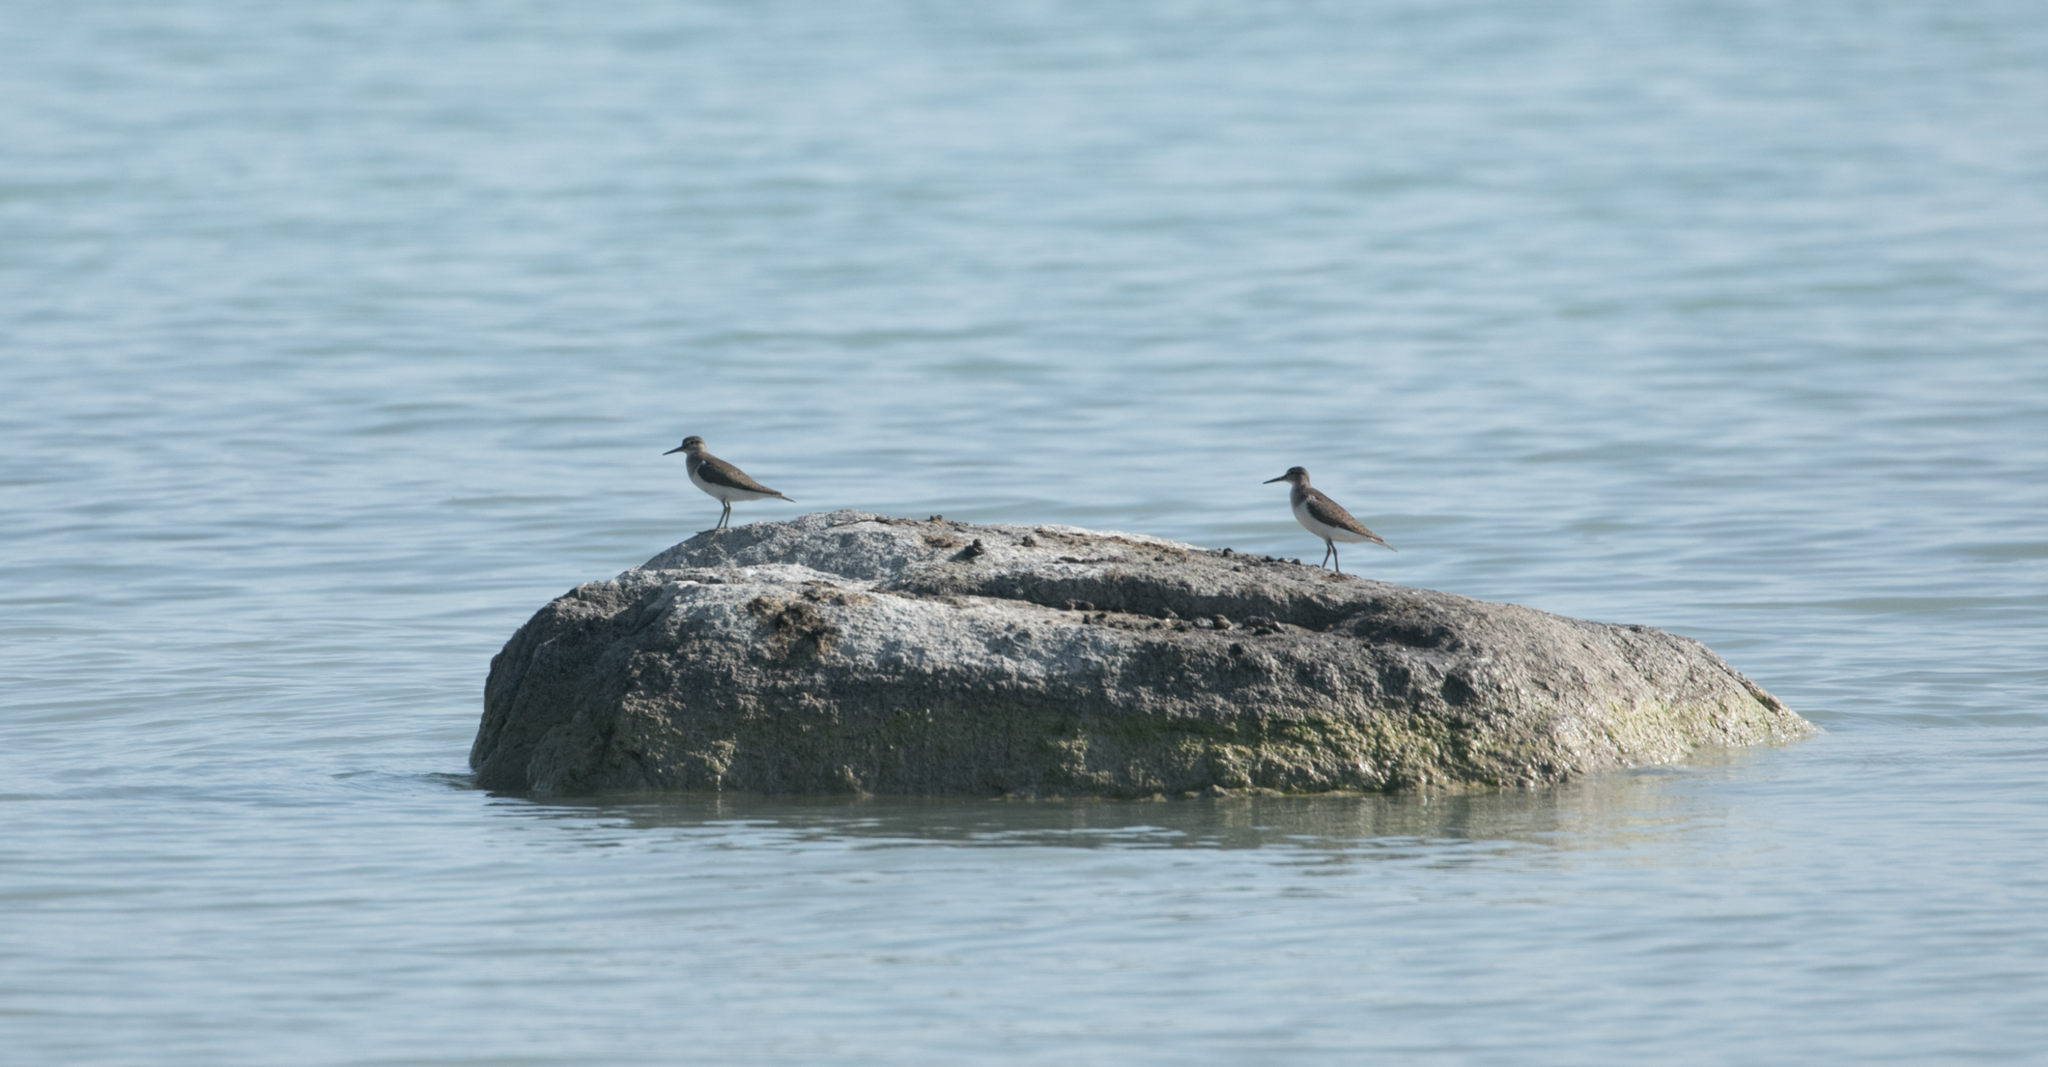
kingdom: Animalia
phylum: Chordata
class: Aves
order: Charadriiformes
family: Scolopacidae
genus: Actitis
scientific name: Actitis hypoleucos
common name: Common sandpiper
